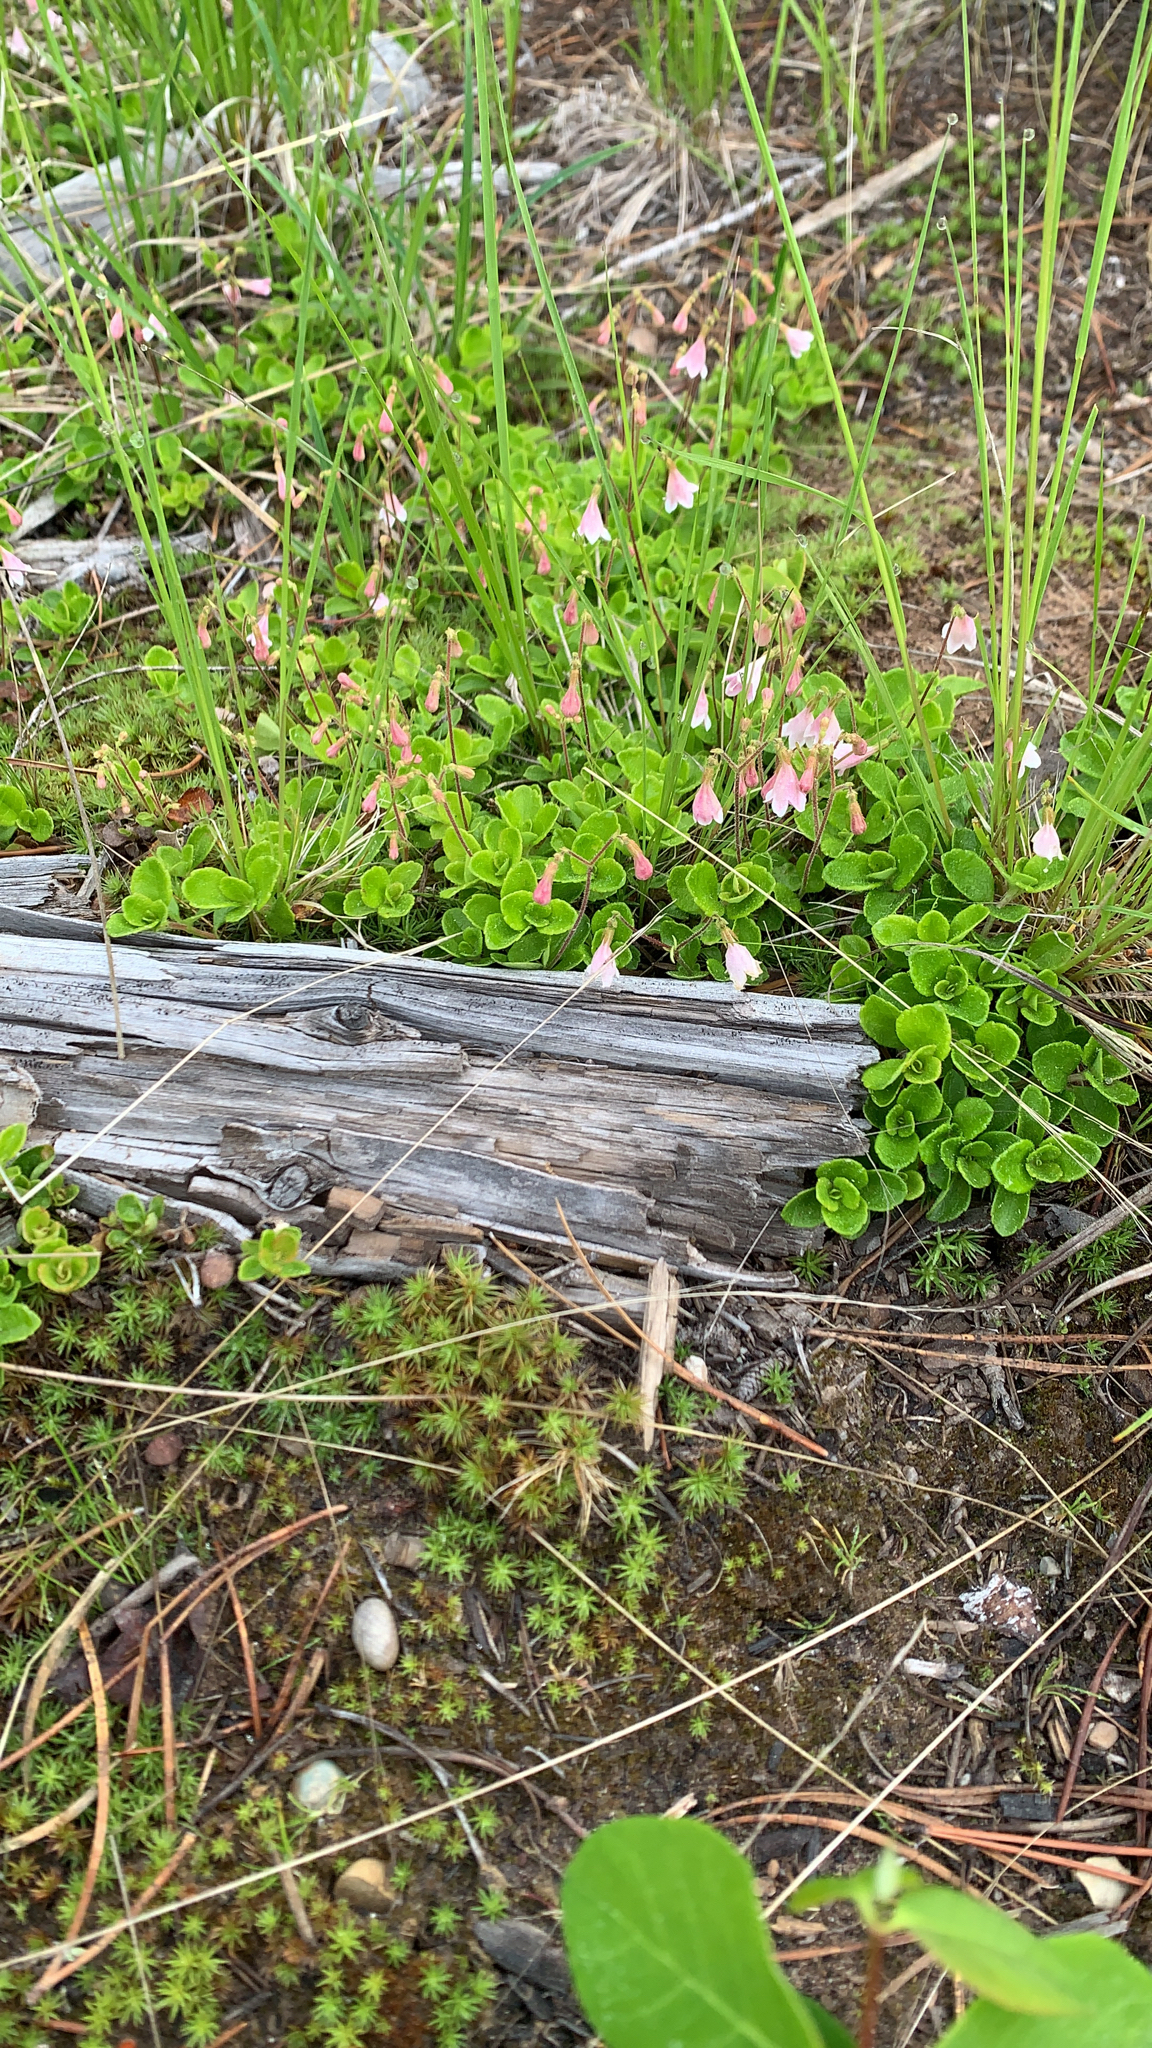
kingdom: Plantae
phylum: Tracheophyta
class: Magnoliopsida
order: Dipsacales
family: Caprifoliaceae
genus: Linnaea
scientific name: Linnaea borealis
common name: Twinflower
